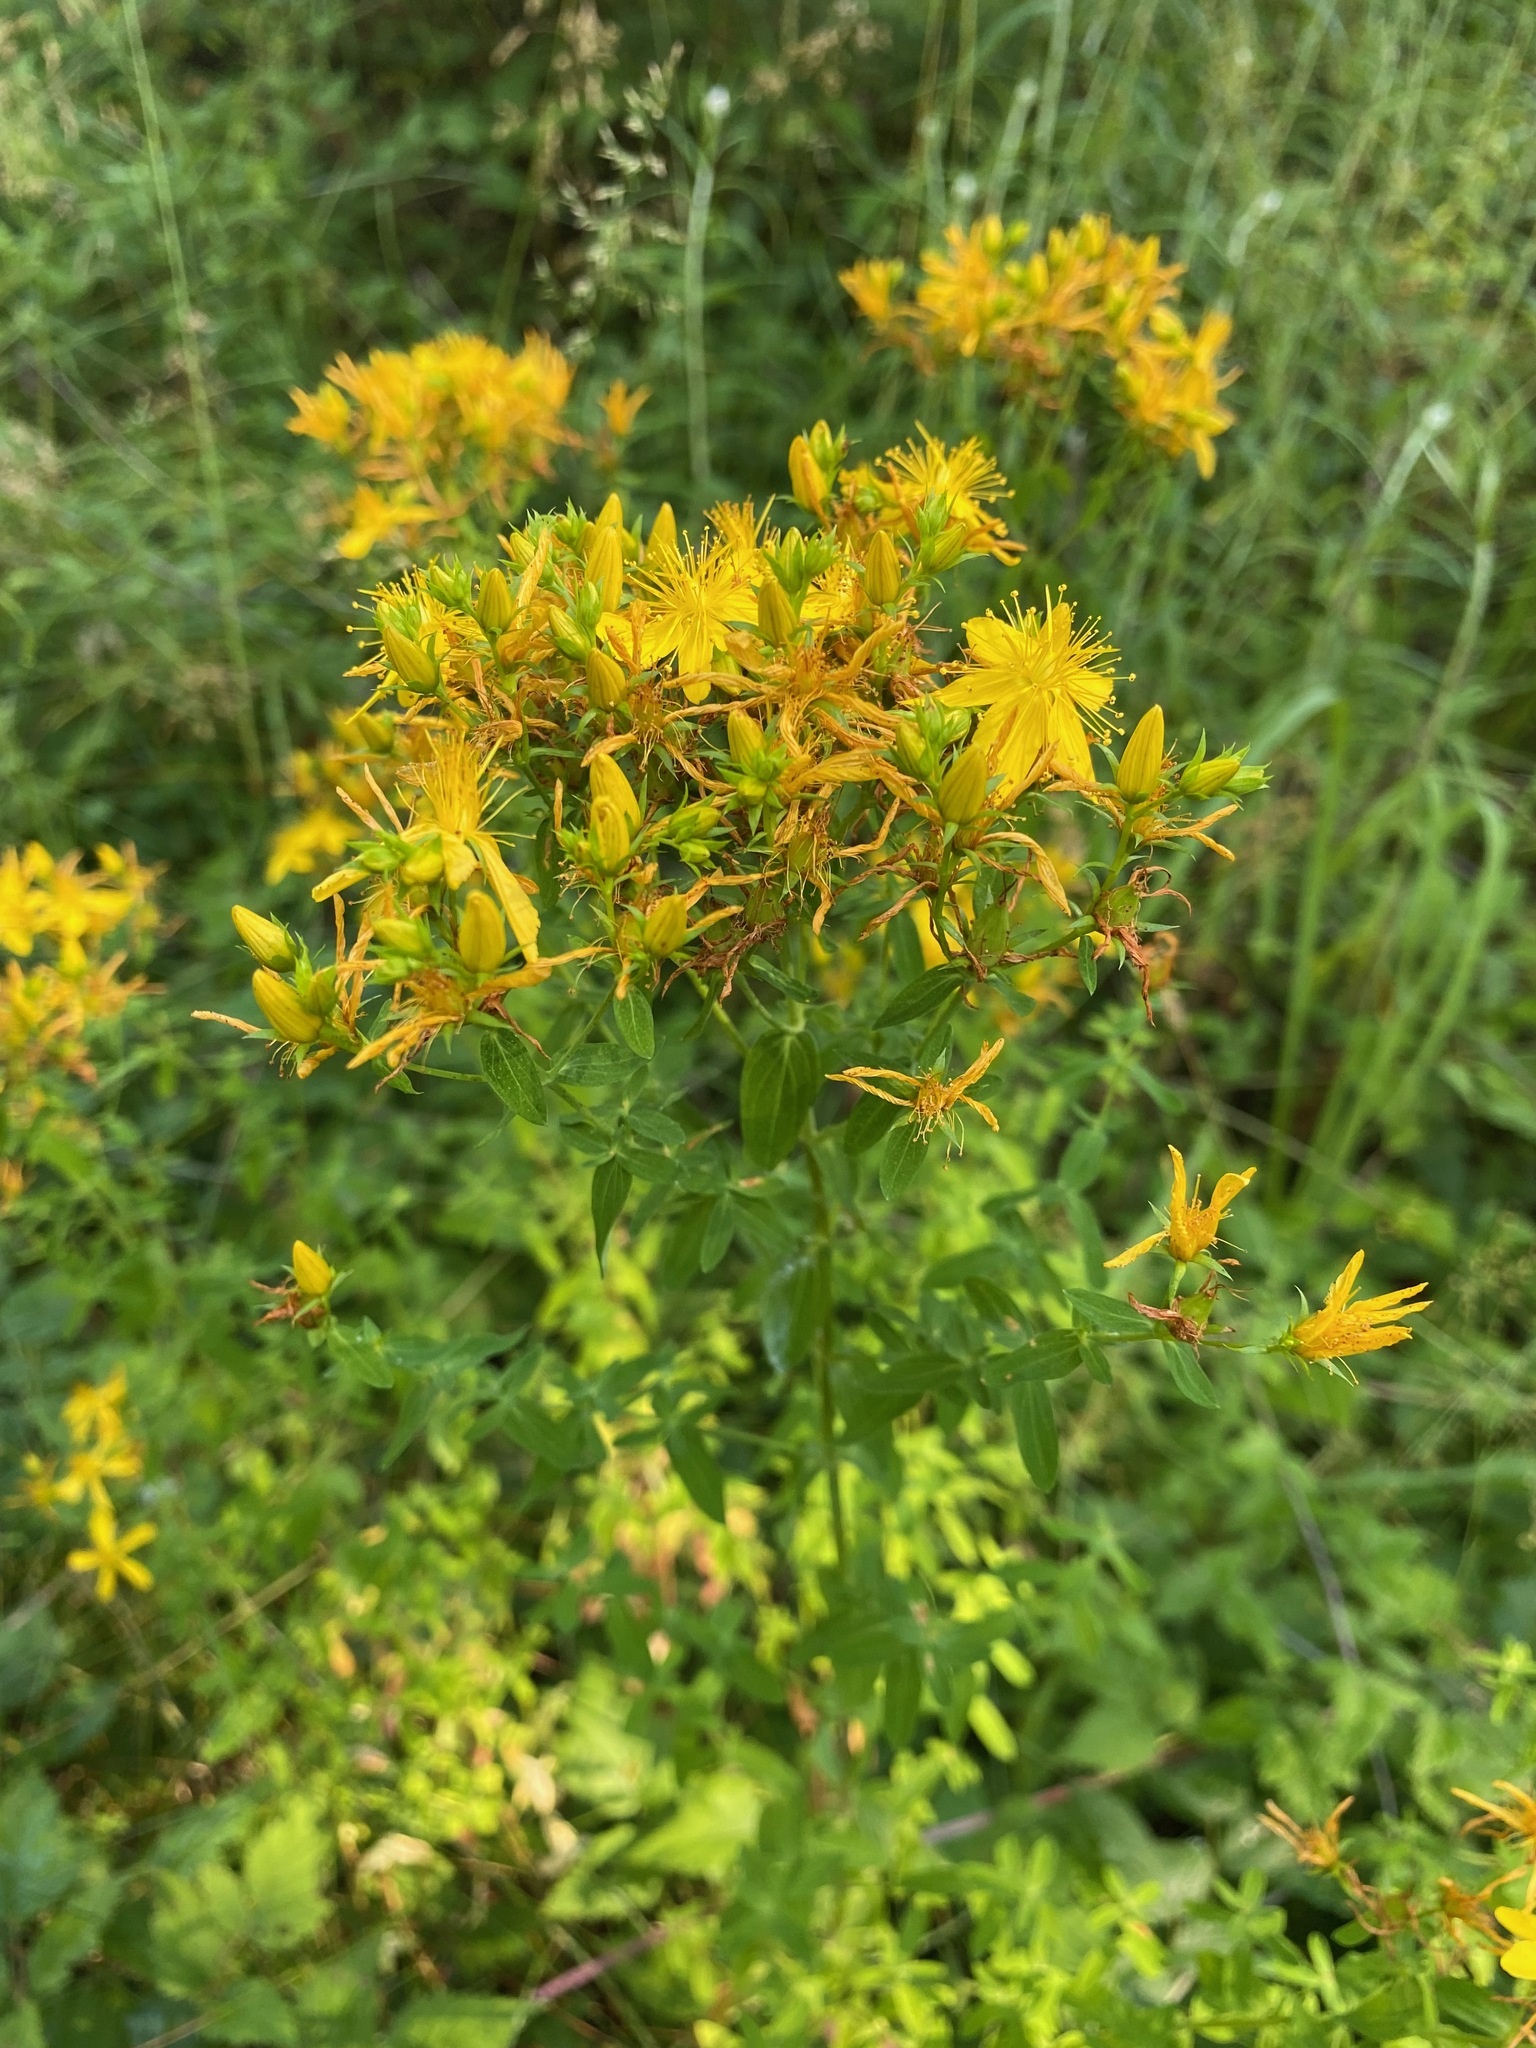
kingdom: Plantae
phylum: Tracheophyta
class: Magnoliopsida
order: Malpighiales
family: Hypericaceae
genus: Hypericum
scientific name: Hypericum perforatum
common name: Common st. johnswort
